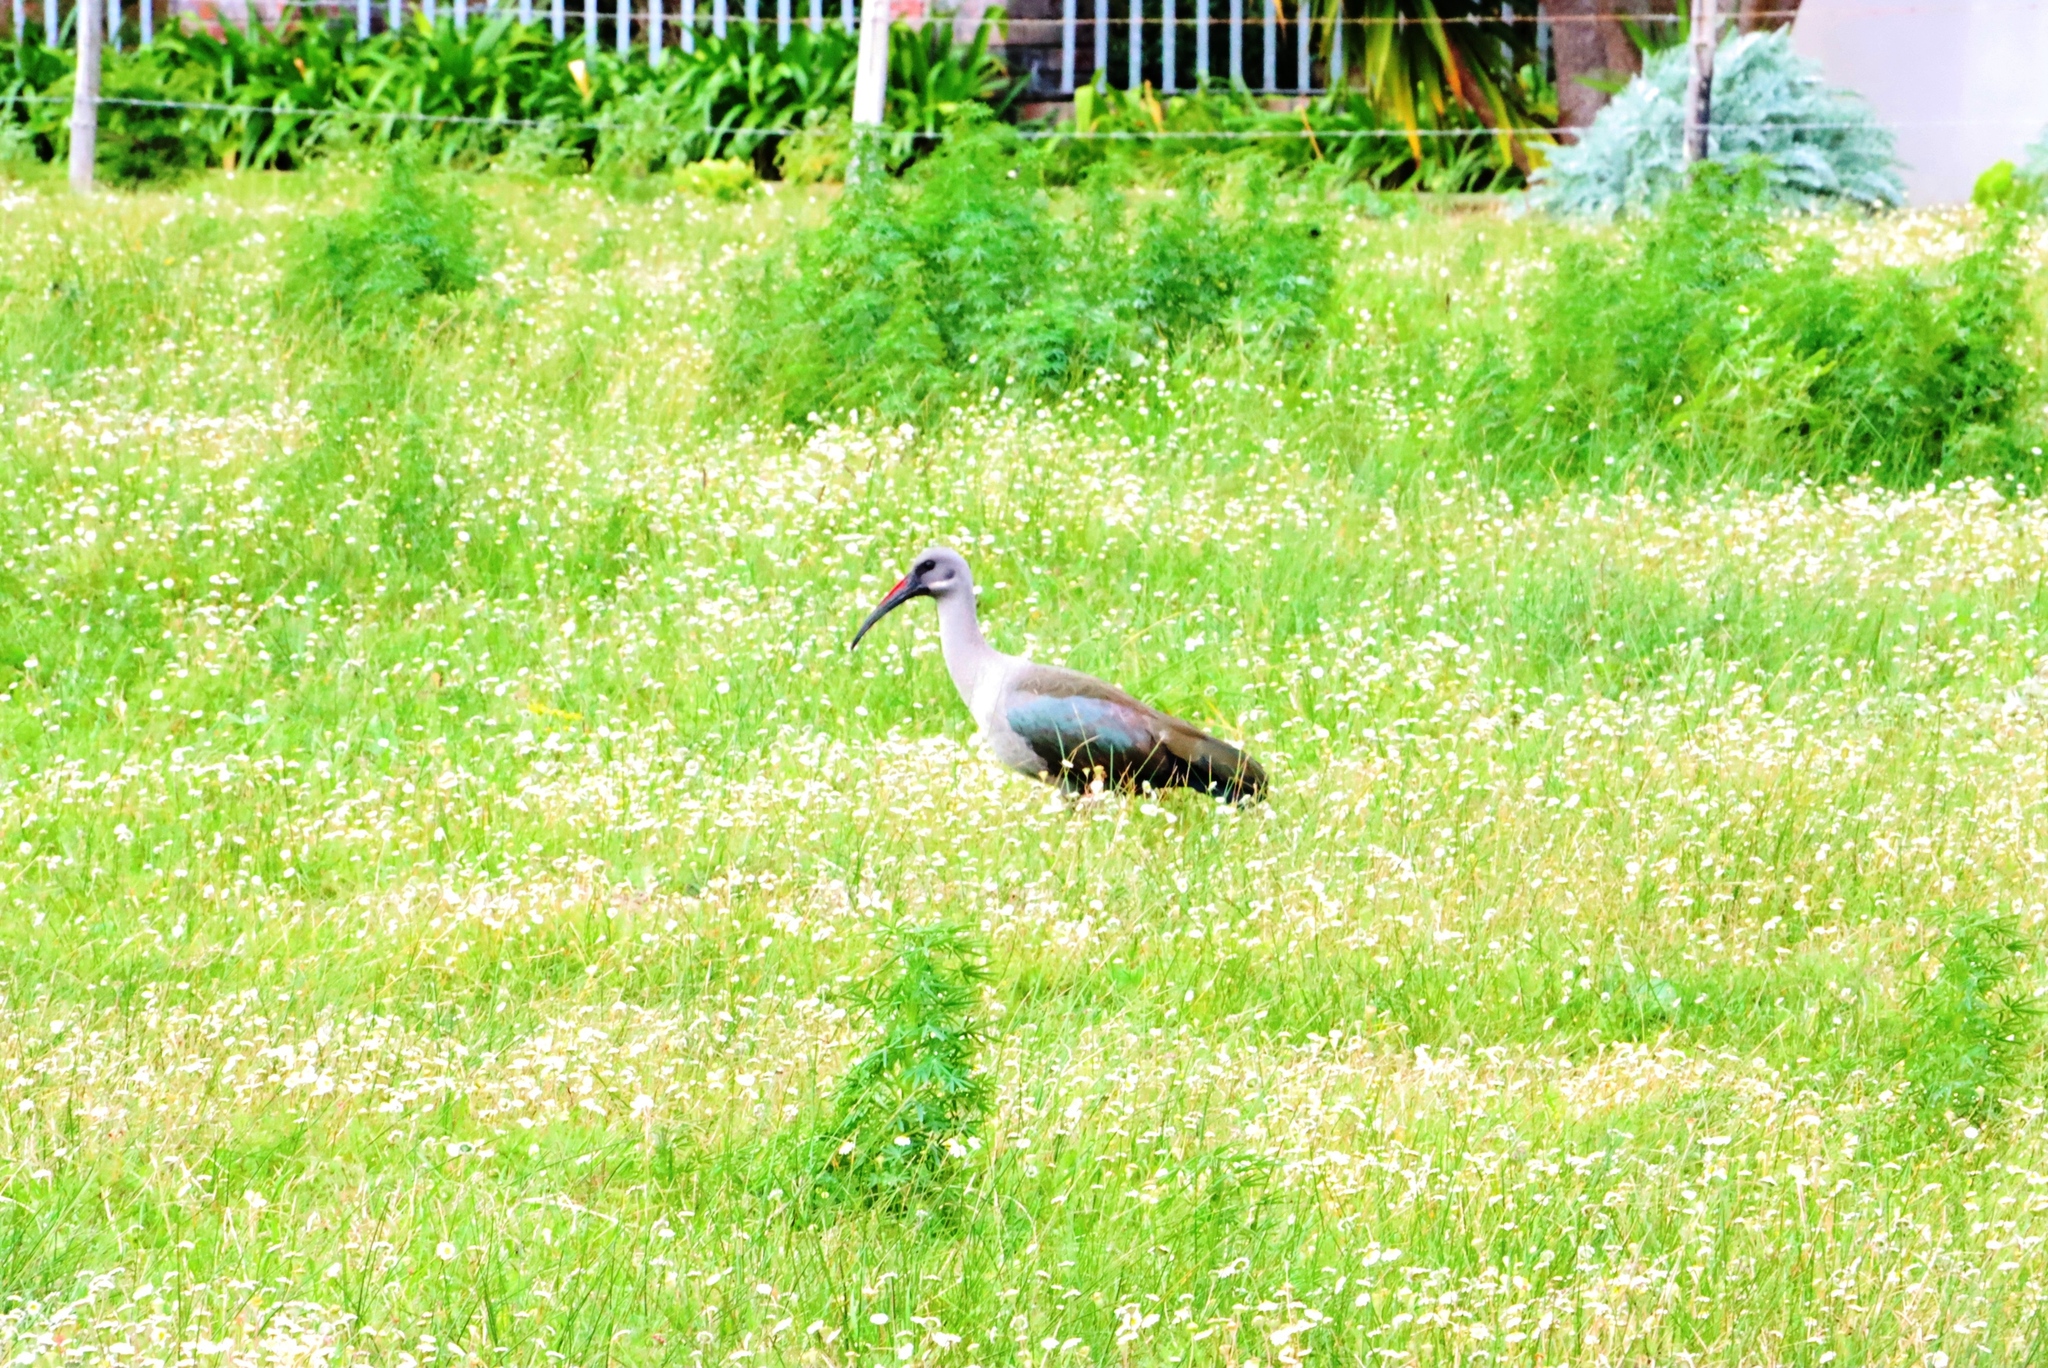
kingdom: Animalia
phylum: Chordata
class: Aves
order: Pelecaniformes
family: Threskiornithidae
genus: Bostrychia
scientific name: Bostrychia hagedash
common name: Hadada ibis
